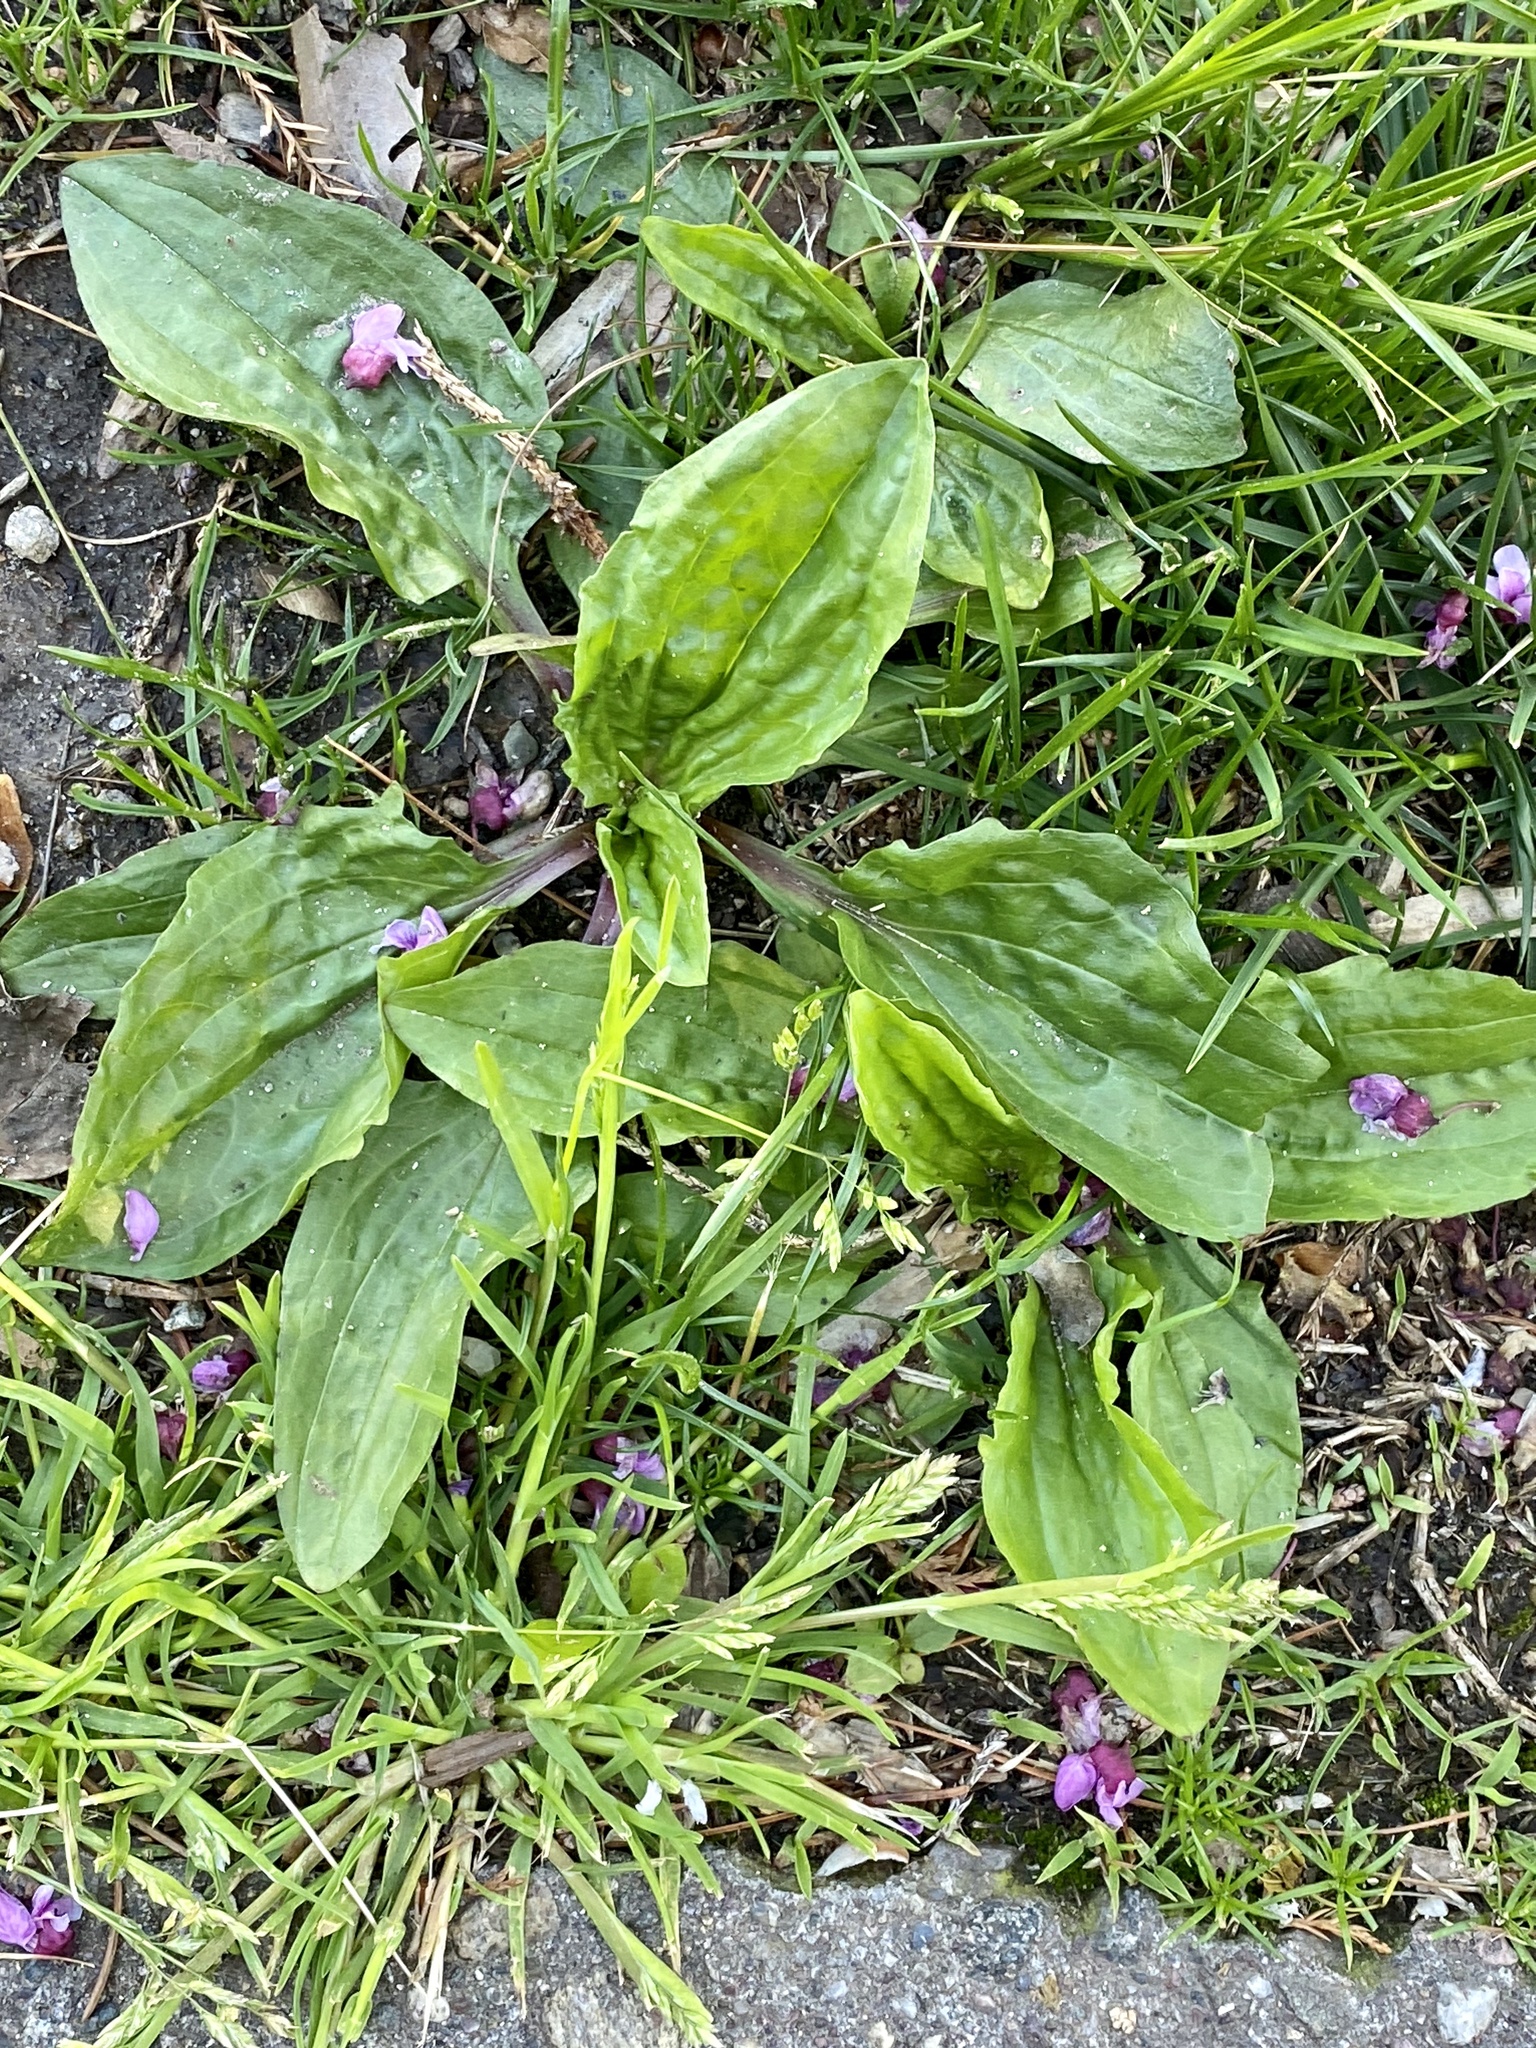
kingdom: Plantae
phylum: Tracheophyta
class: Magnoliopsida
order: Lamiales
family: Plantaginaceae
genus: Plantago
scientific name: Plantago rugelii
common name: American plantain
